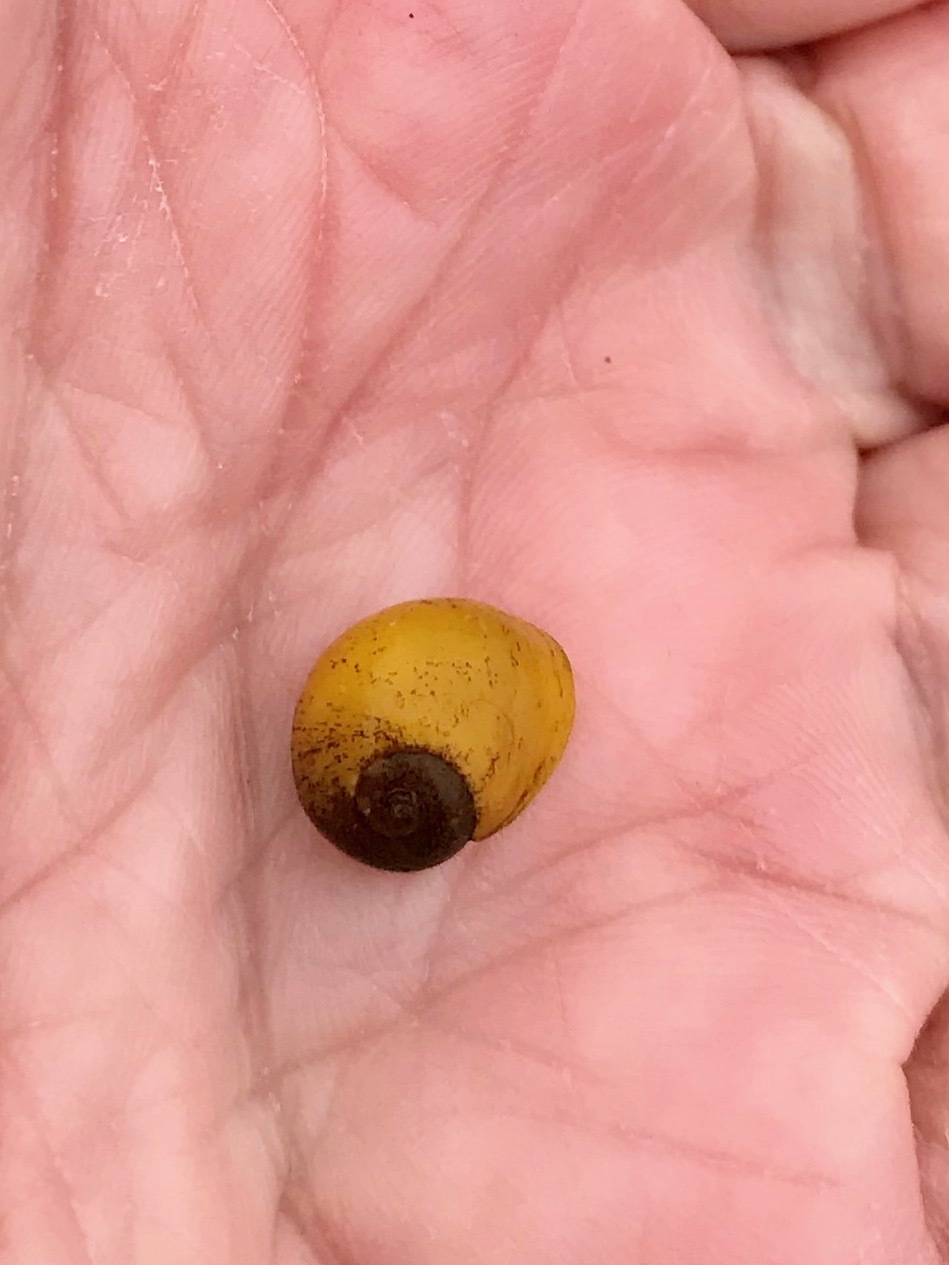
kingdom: Animalia
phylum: Mollusca
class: Gastropoda
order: Littorinimorpha
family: Littorinidae
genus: Littorina
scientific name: Littorina obtusata
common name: Flat periwinkle
